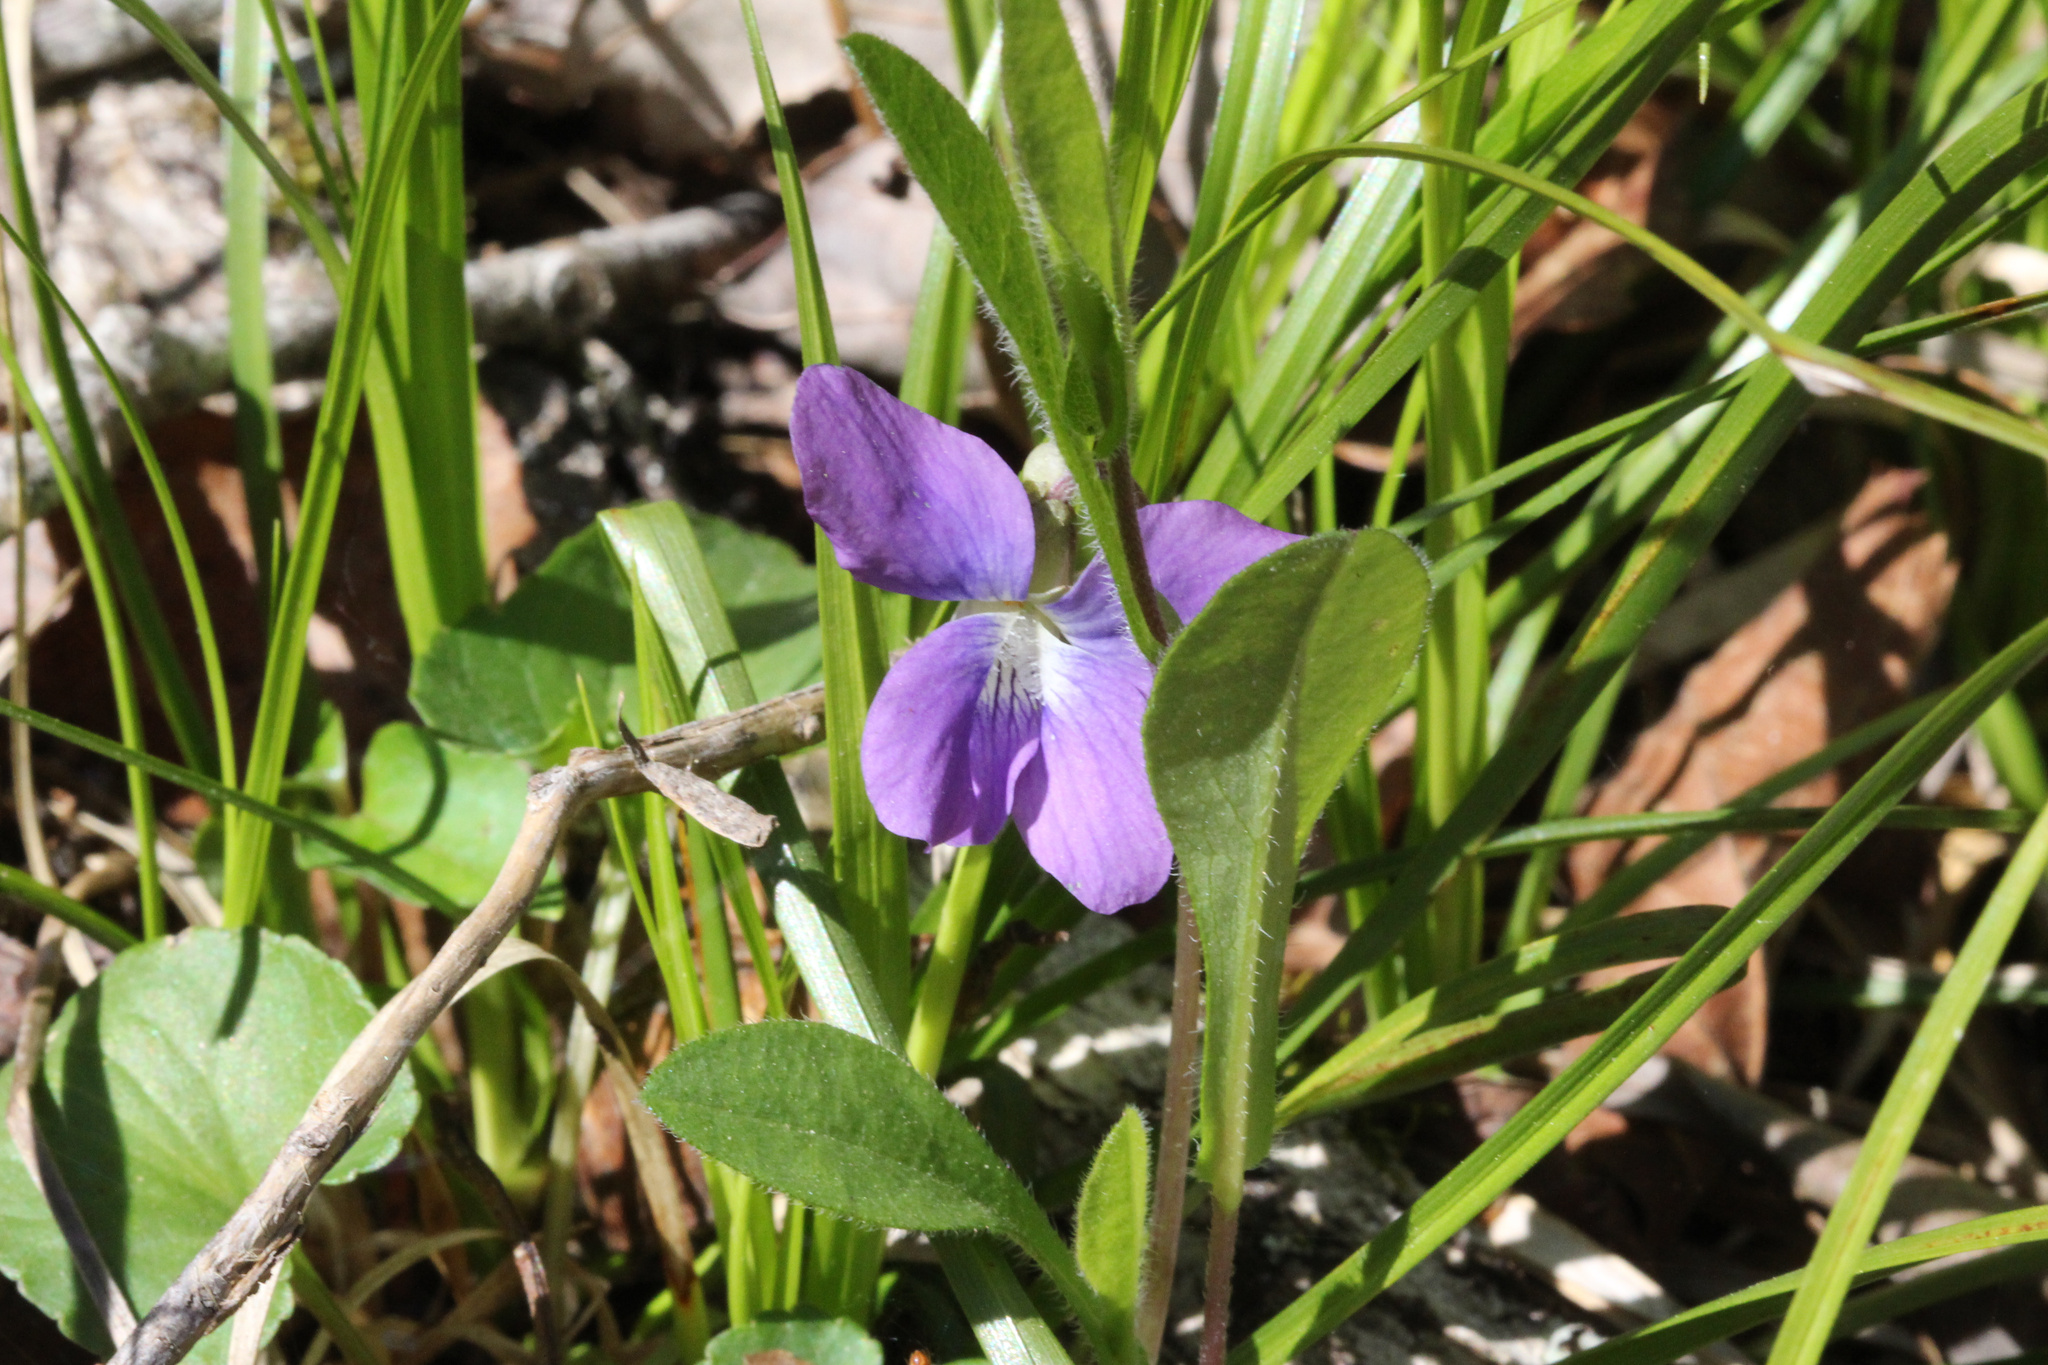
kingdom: Plantae
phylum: Tracheophyta
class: Magnoliopsida
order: Malpighiales
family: Violaceae
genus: Viola
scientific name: Viola sororia
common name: Dooryard violet
